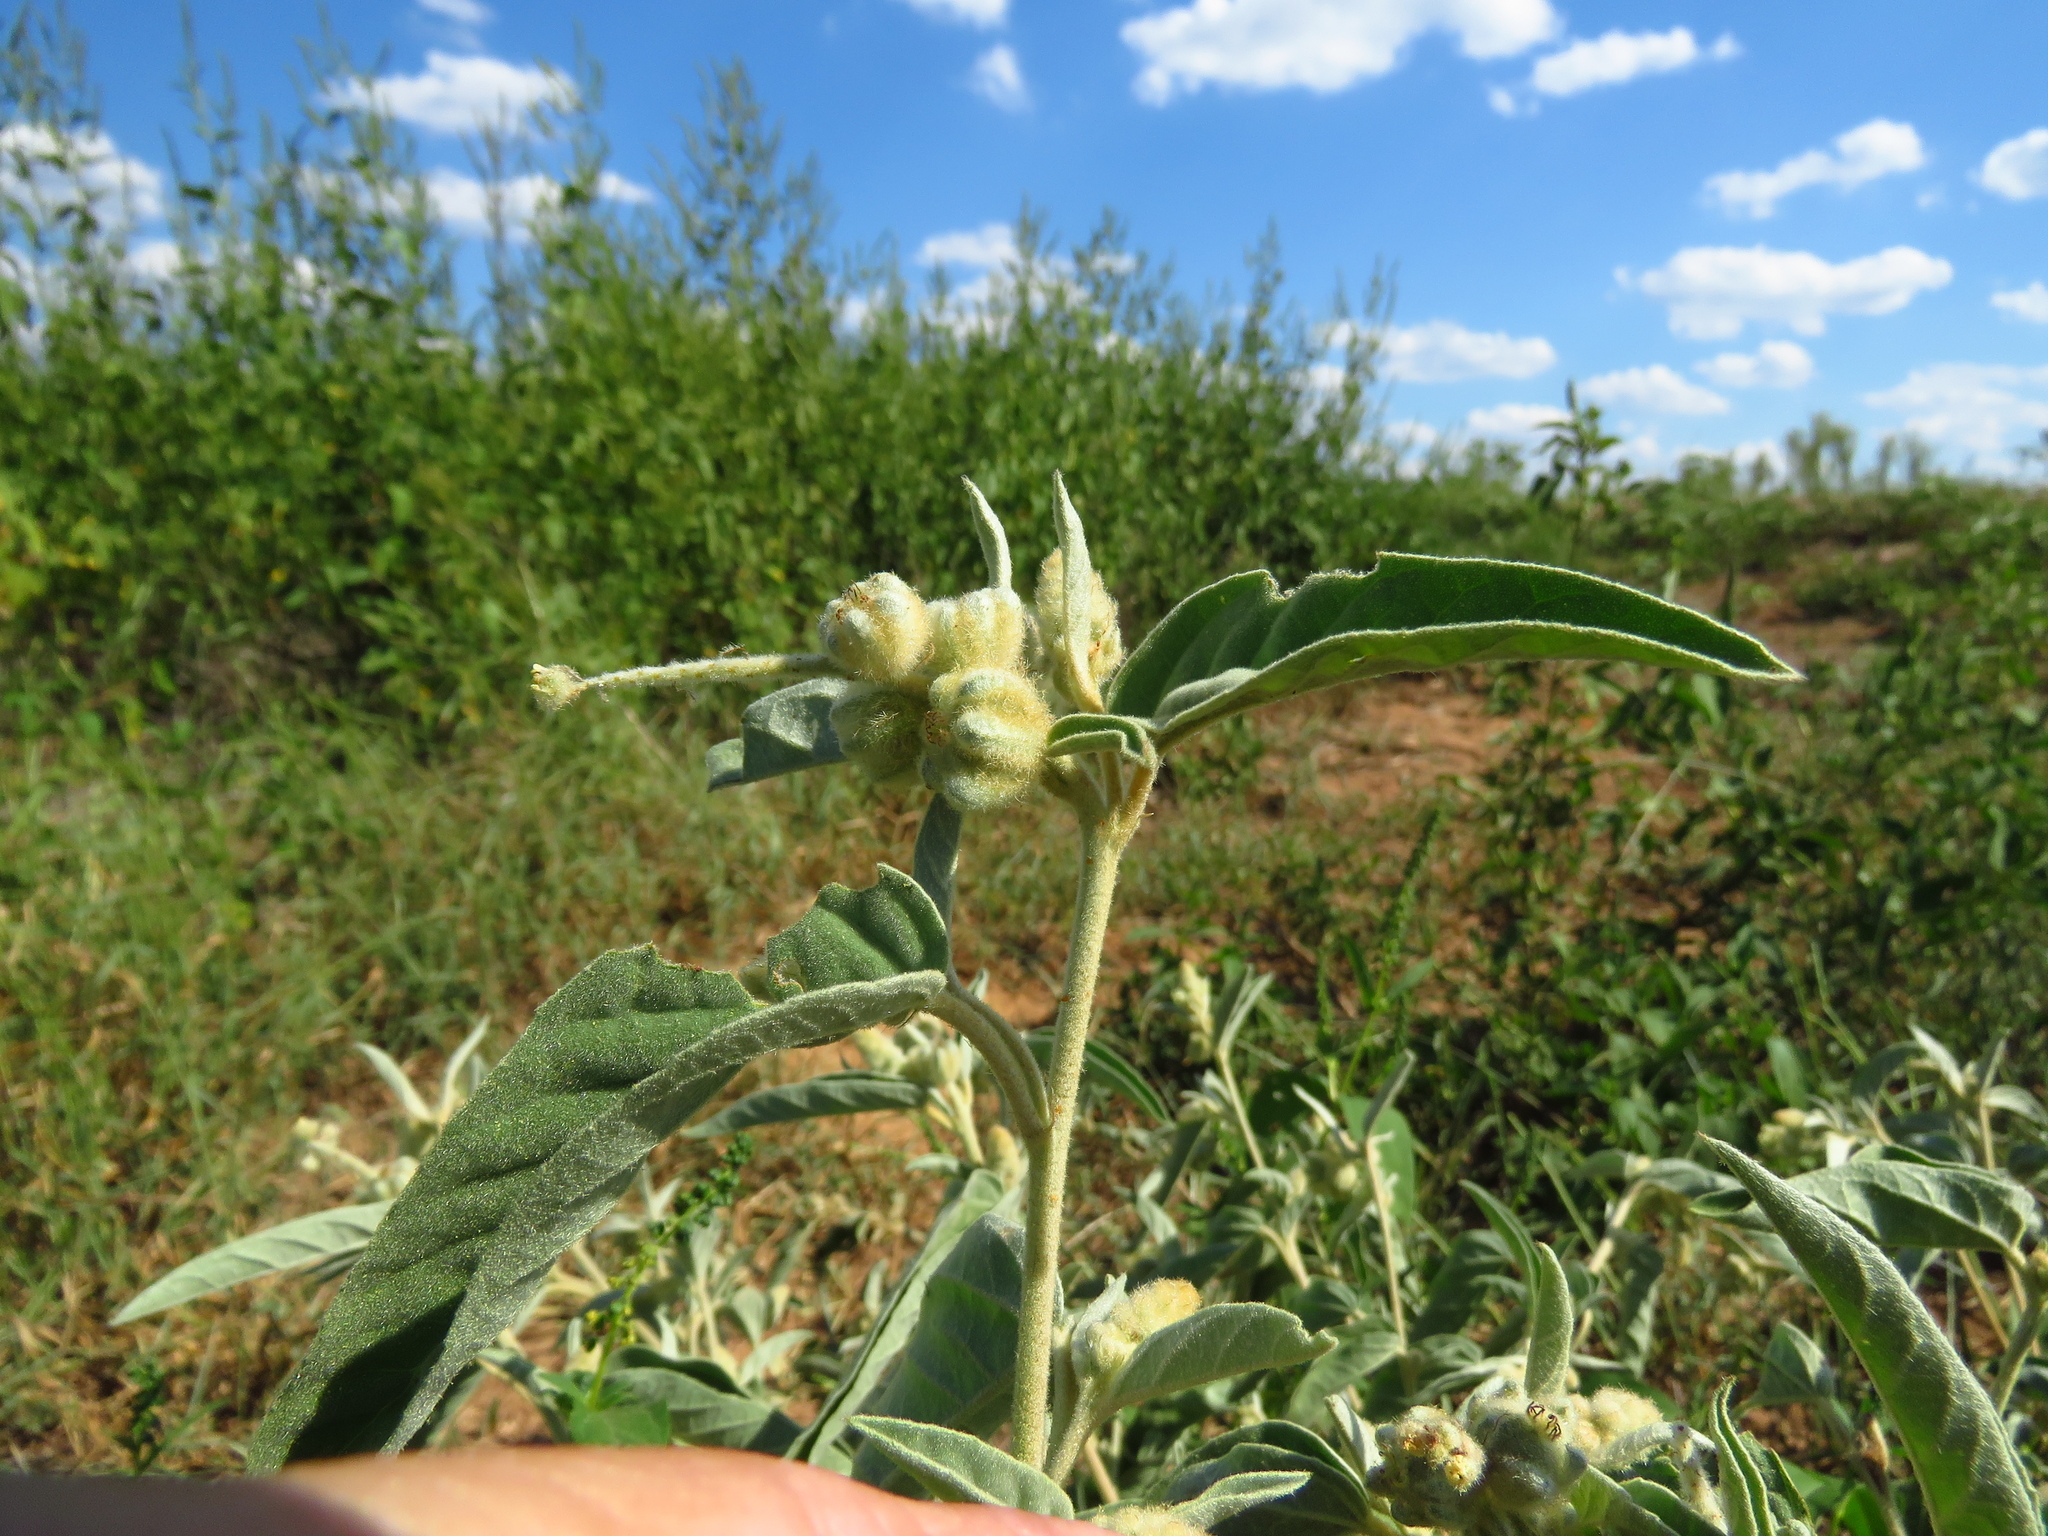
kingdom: Plantae
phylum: Tracheophyta
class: Magnoliopsida
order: Malpighiales
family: Euphorbiaceae
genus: Croton
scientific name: Croton lindheimeri
